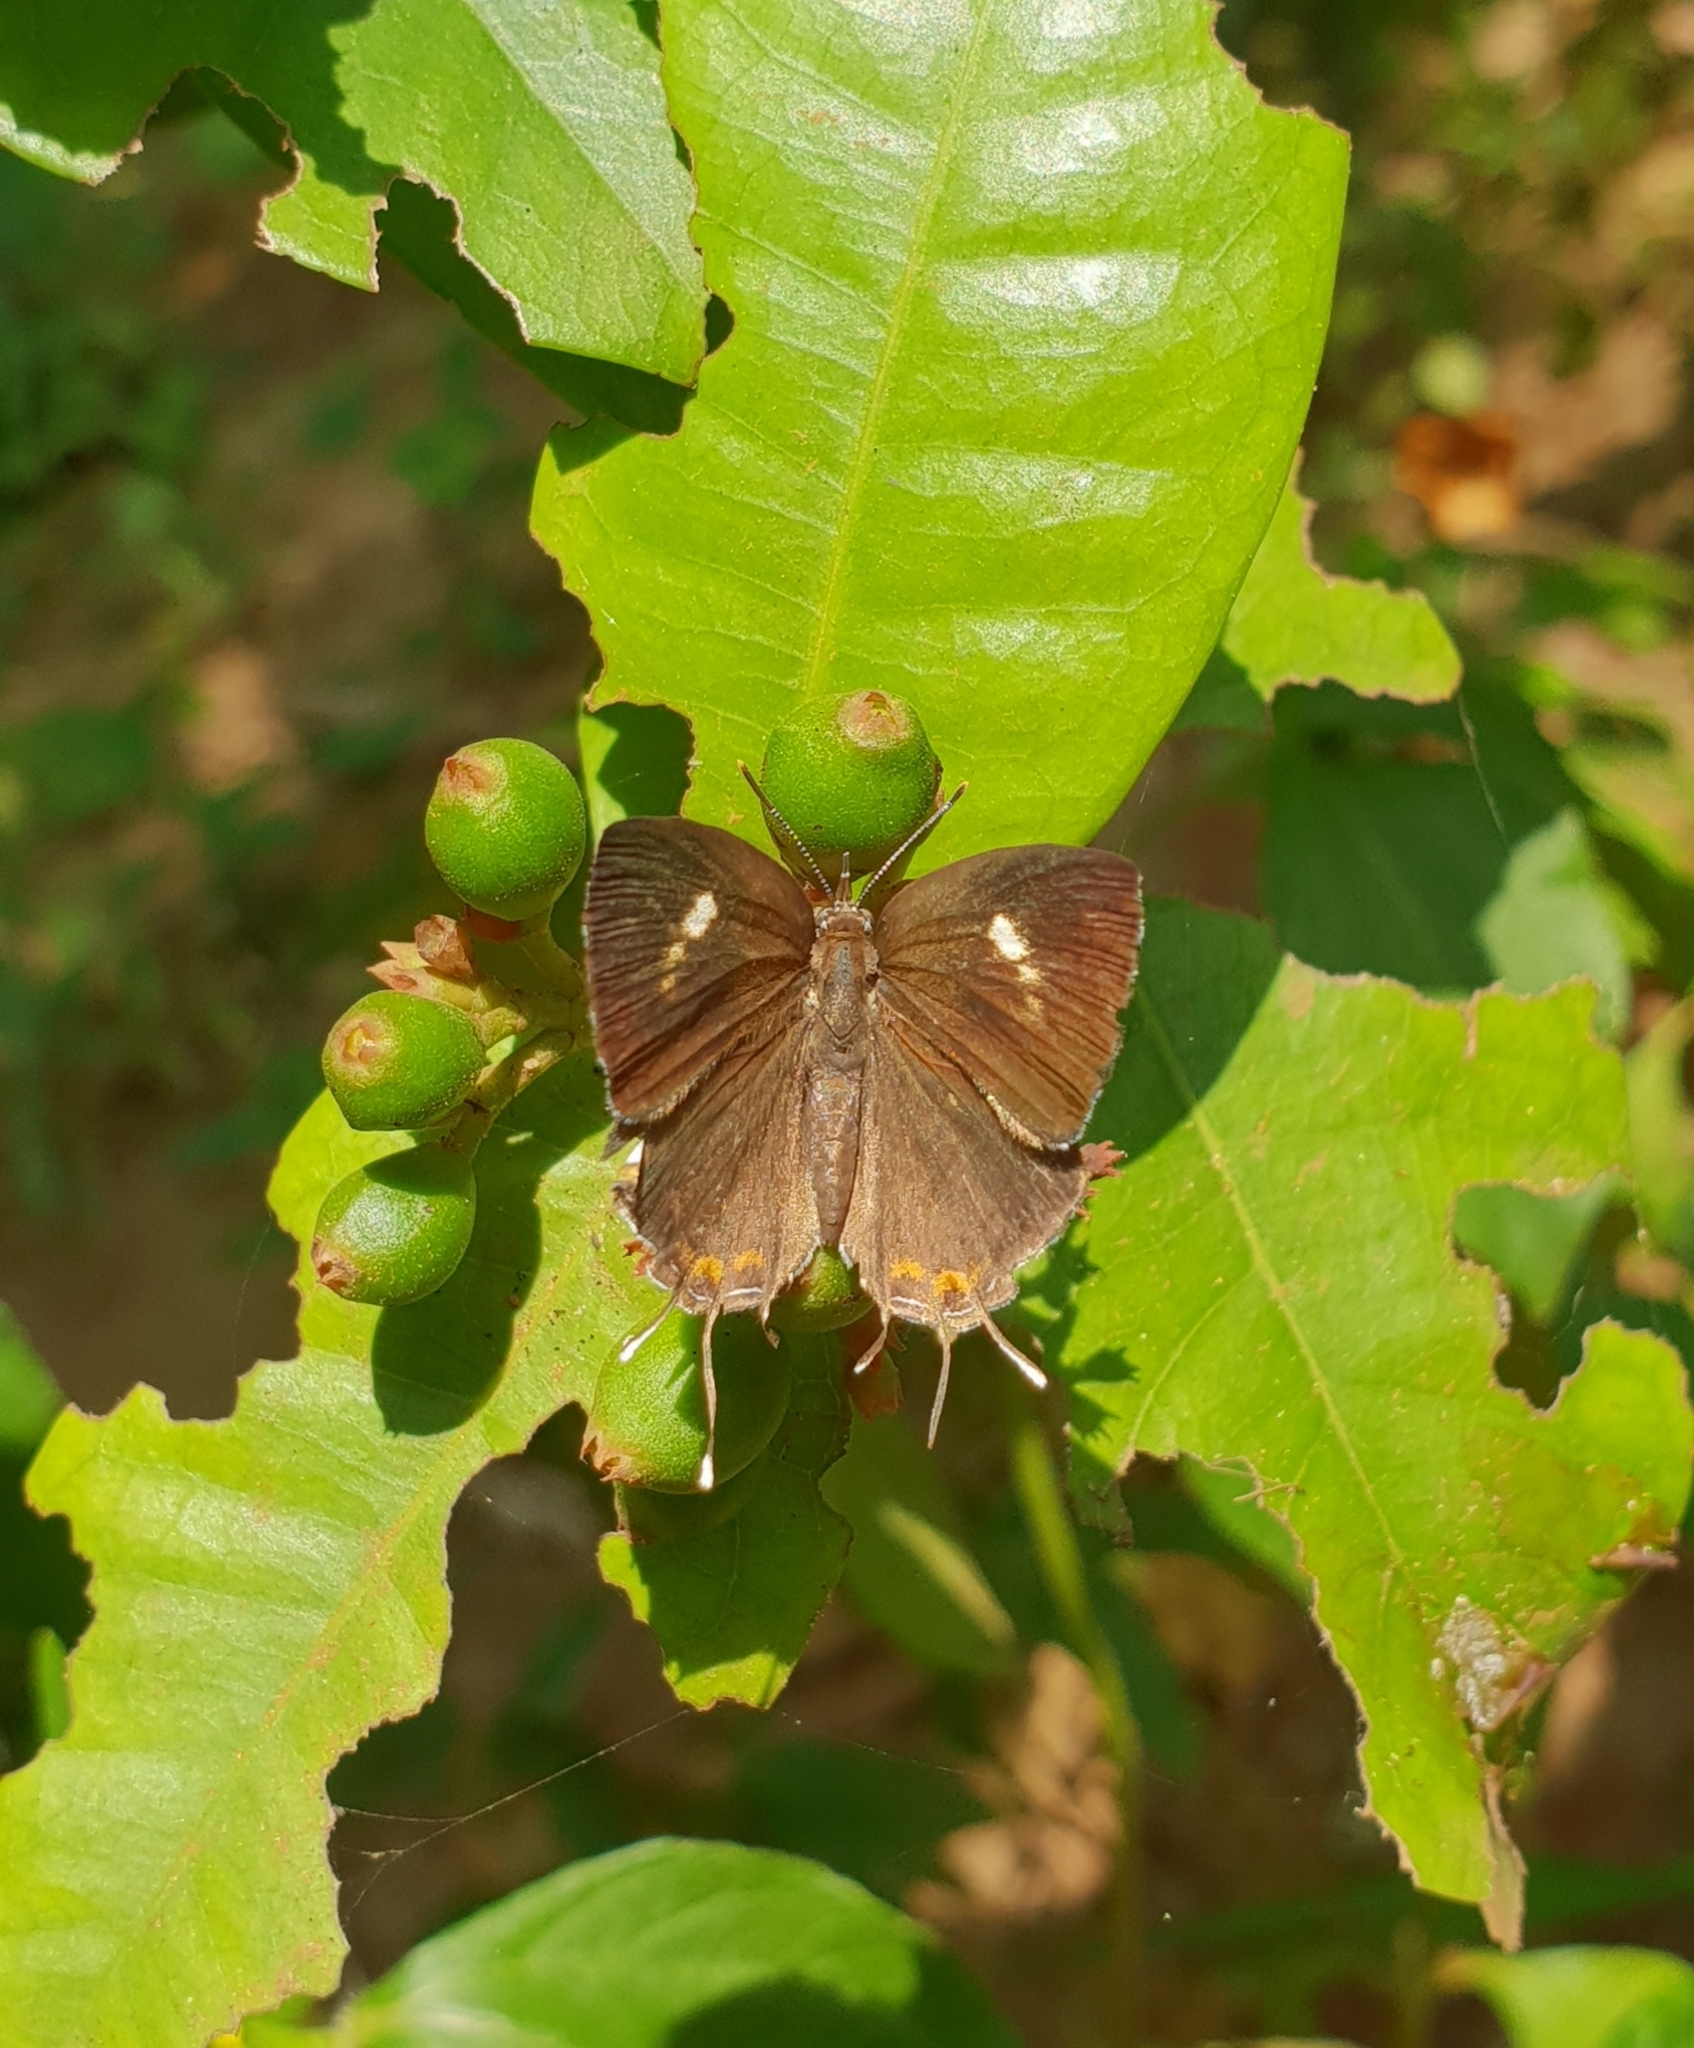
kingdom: Animalia
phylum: Arthropoda
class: Insecta
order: Lepidoptera
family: Lycaenidae
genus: Rathinda
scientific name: Rathinda amor
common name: Monkey puzzle
